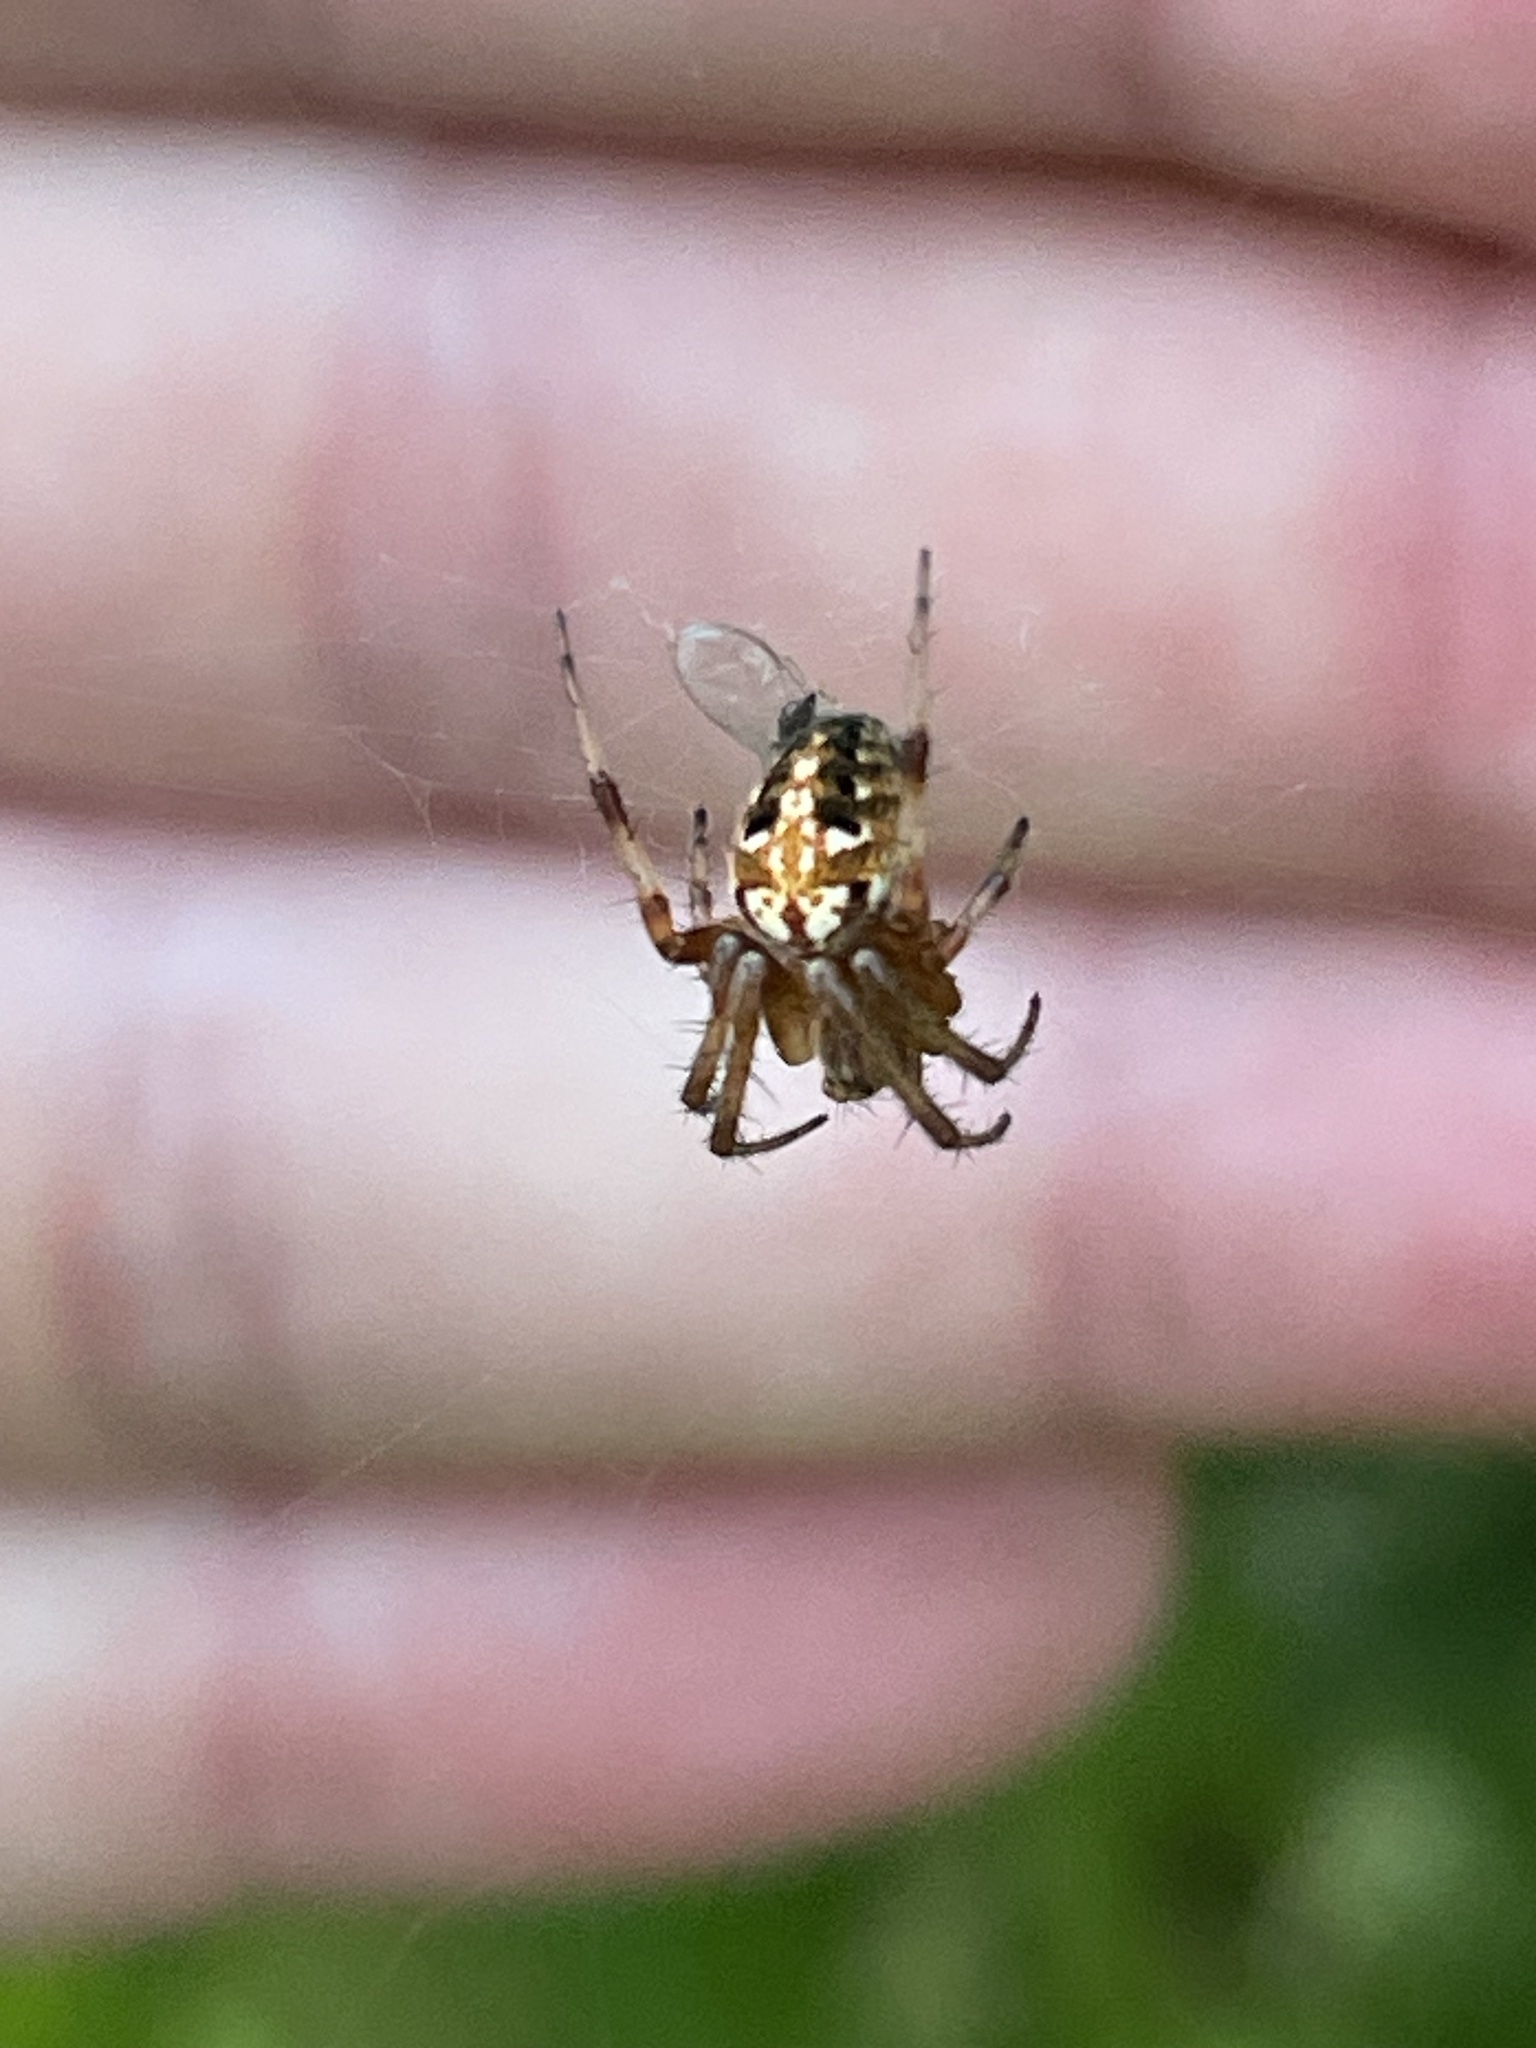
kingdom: Animalia
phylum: Arthropoda
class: Arachnida
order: Araneae
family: Araneidae
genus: Neoscona
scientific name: Neoscona arabesca
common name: Orb weavers
